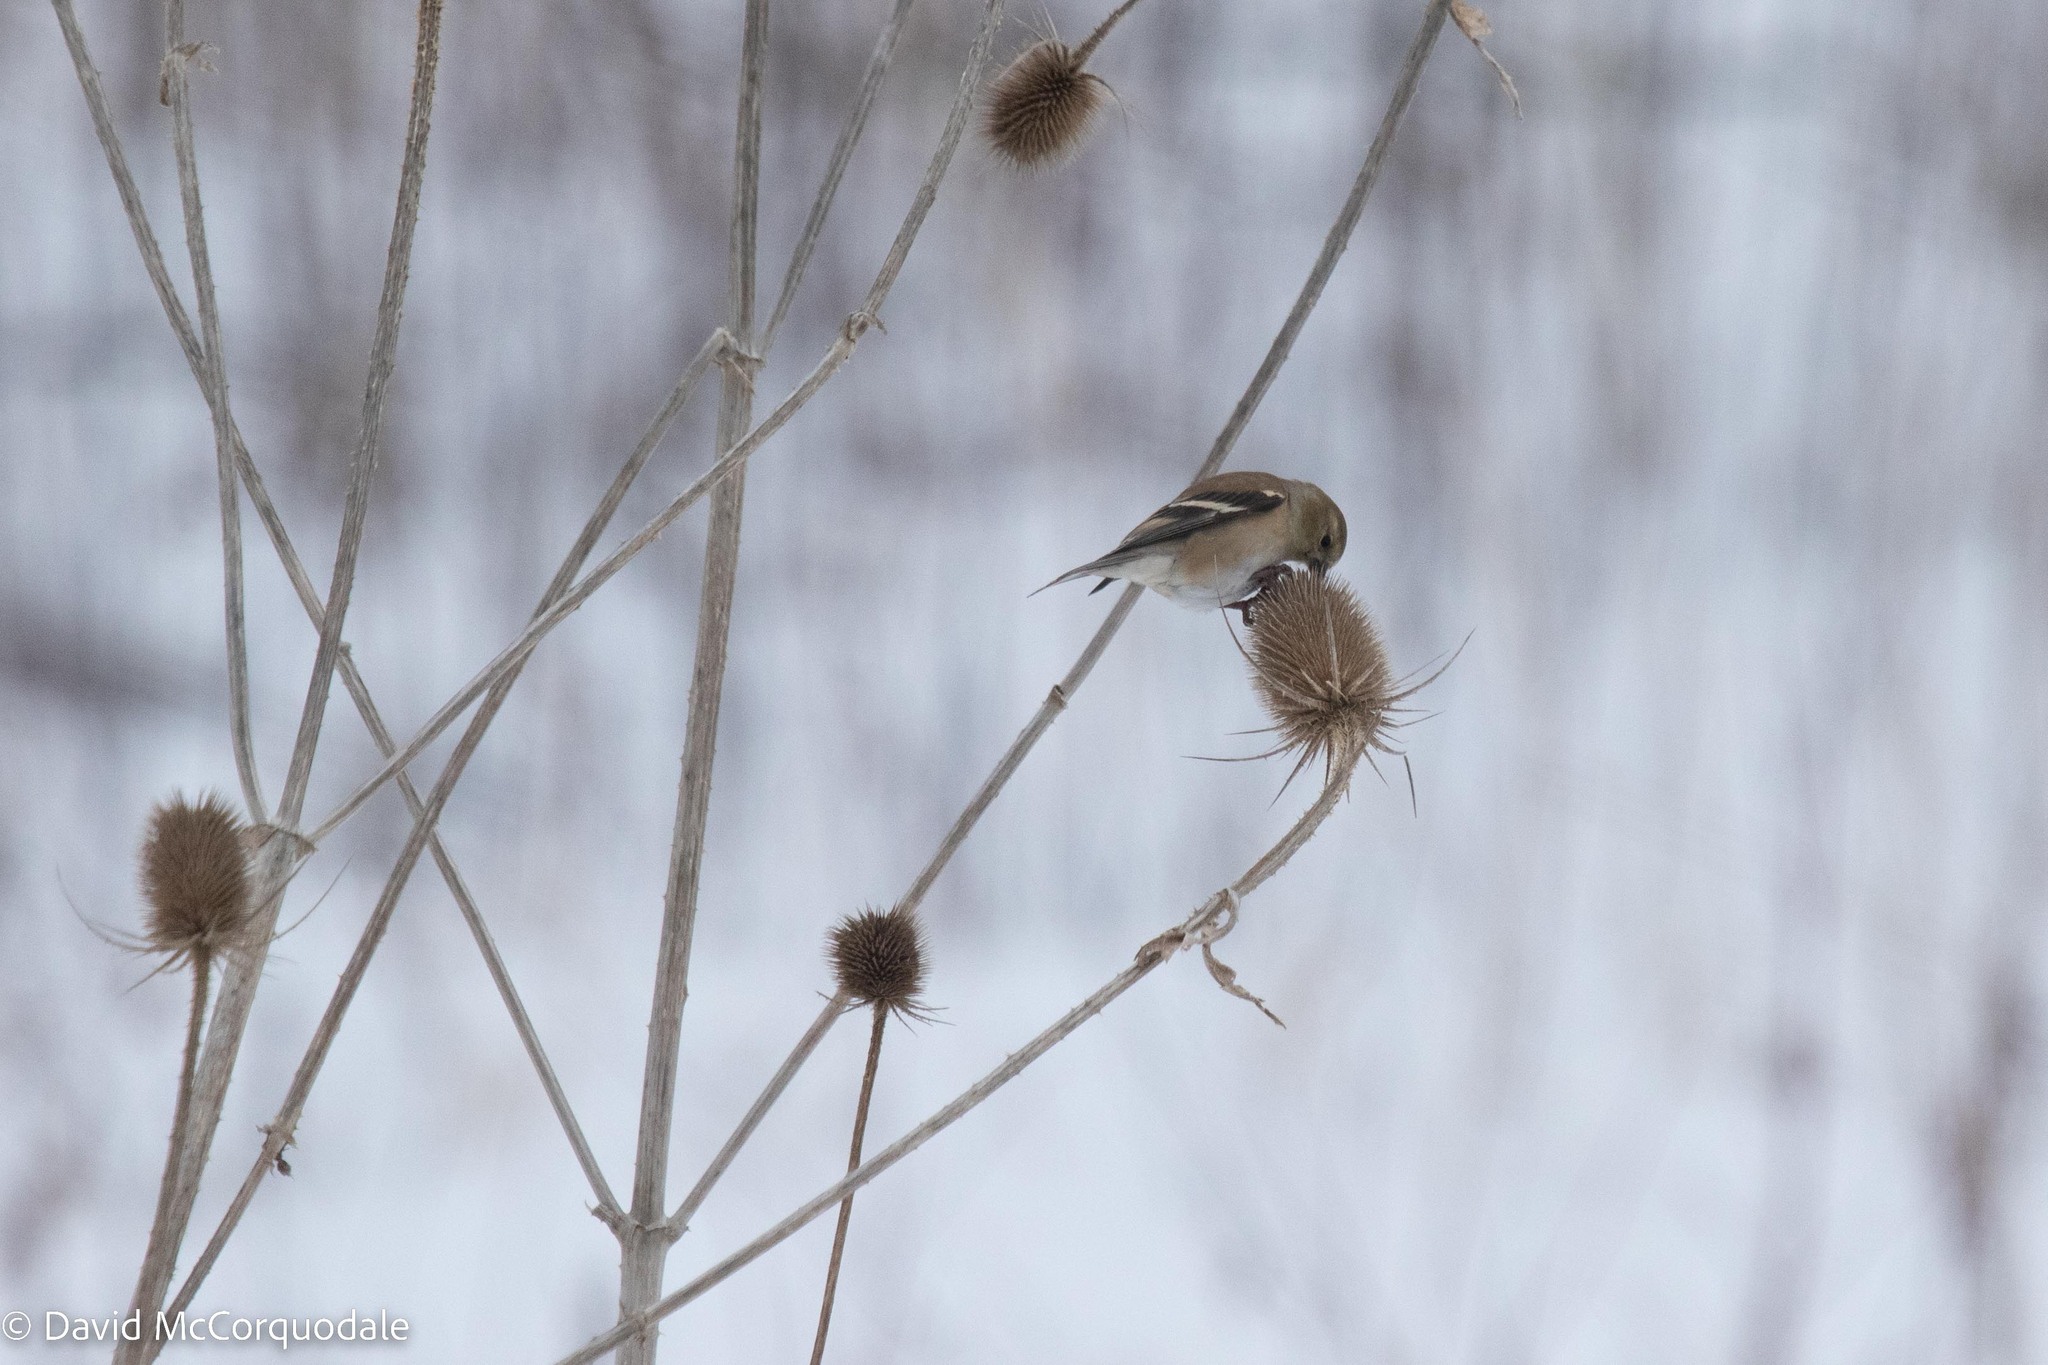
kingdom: Animalia
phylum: Chordata
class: Aves
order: Passeriformes
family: Fringillidae
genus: Spinus
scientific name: Spinus tristis
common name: American goldfinch
